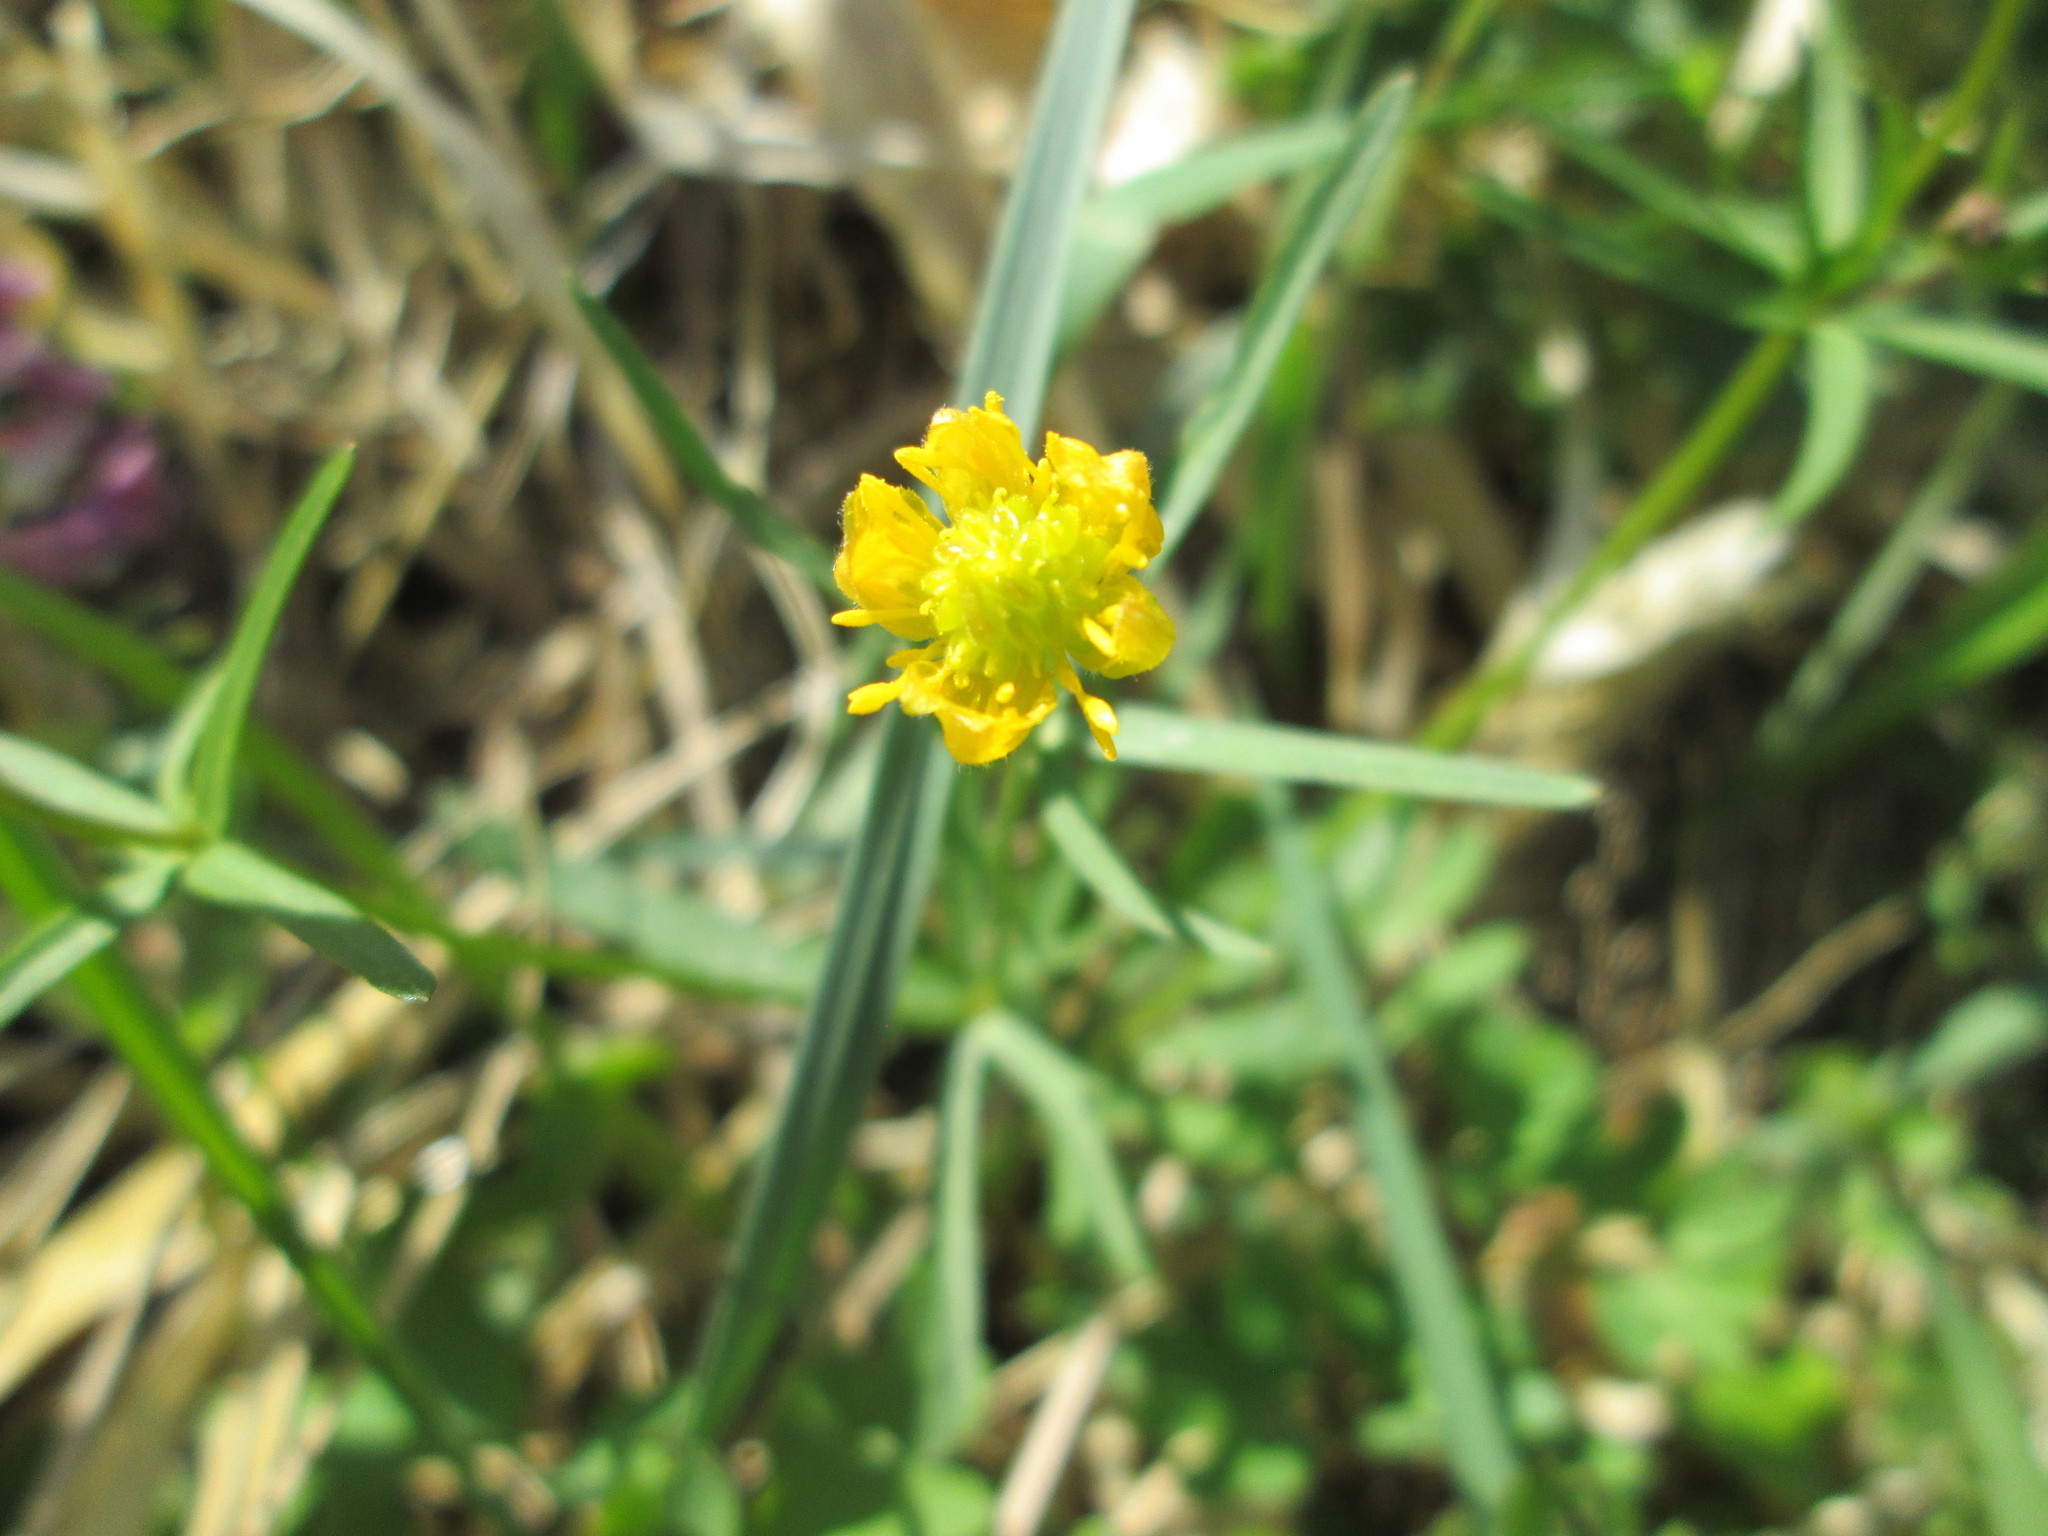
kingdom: Plantae
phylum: Tracheophyta
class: Magnoliopsida
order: Ranunculales
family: Ranunculaceae
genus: Ranunculus
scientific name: Ranunculus auricomus
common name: Goldilocks buttercup
